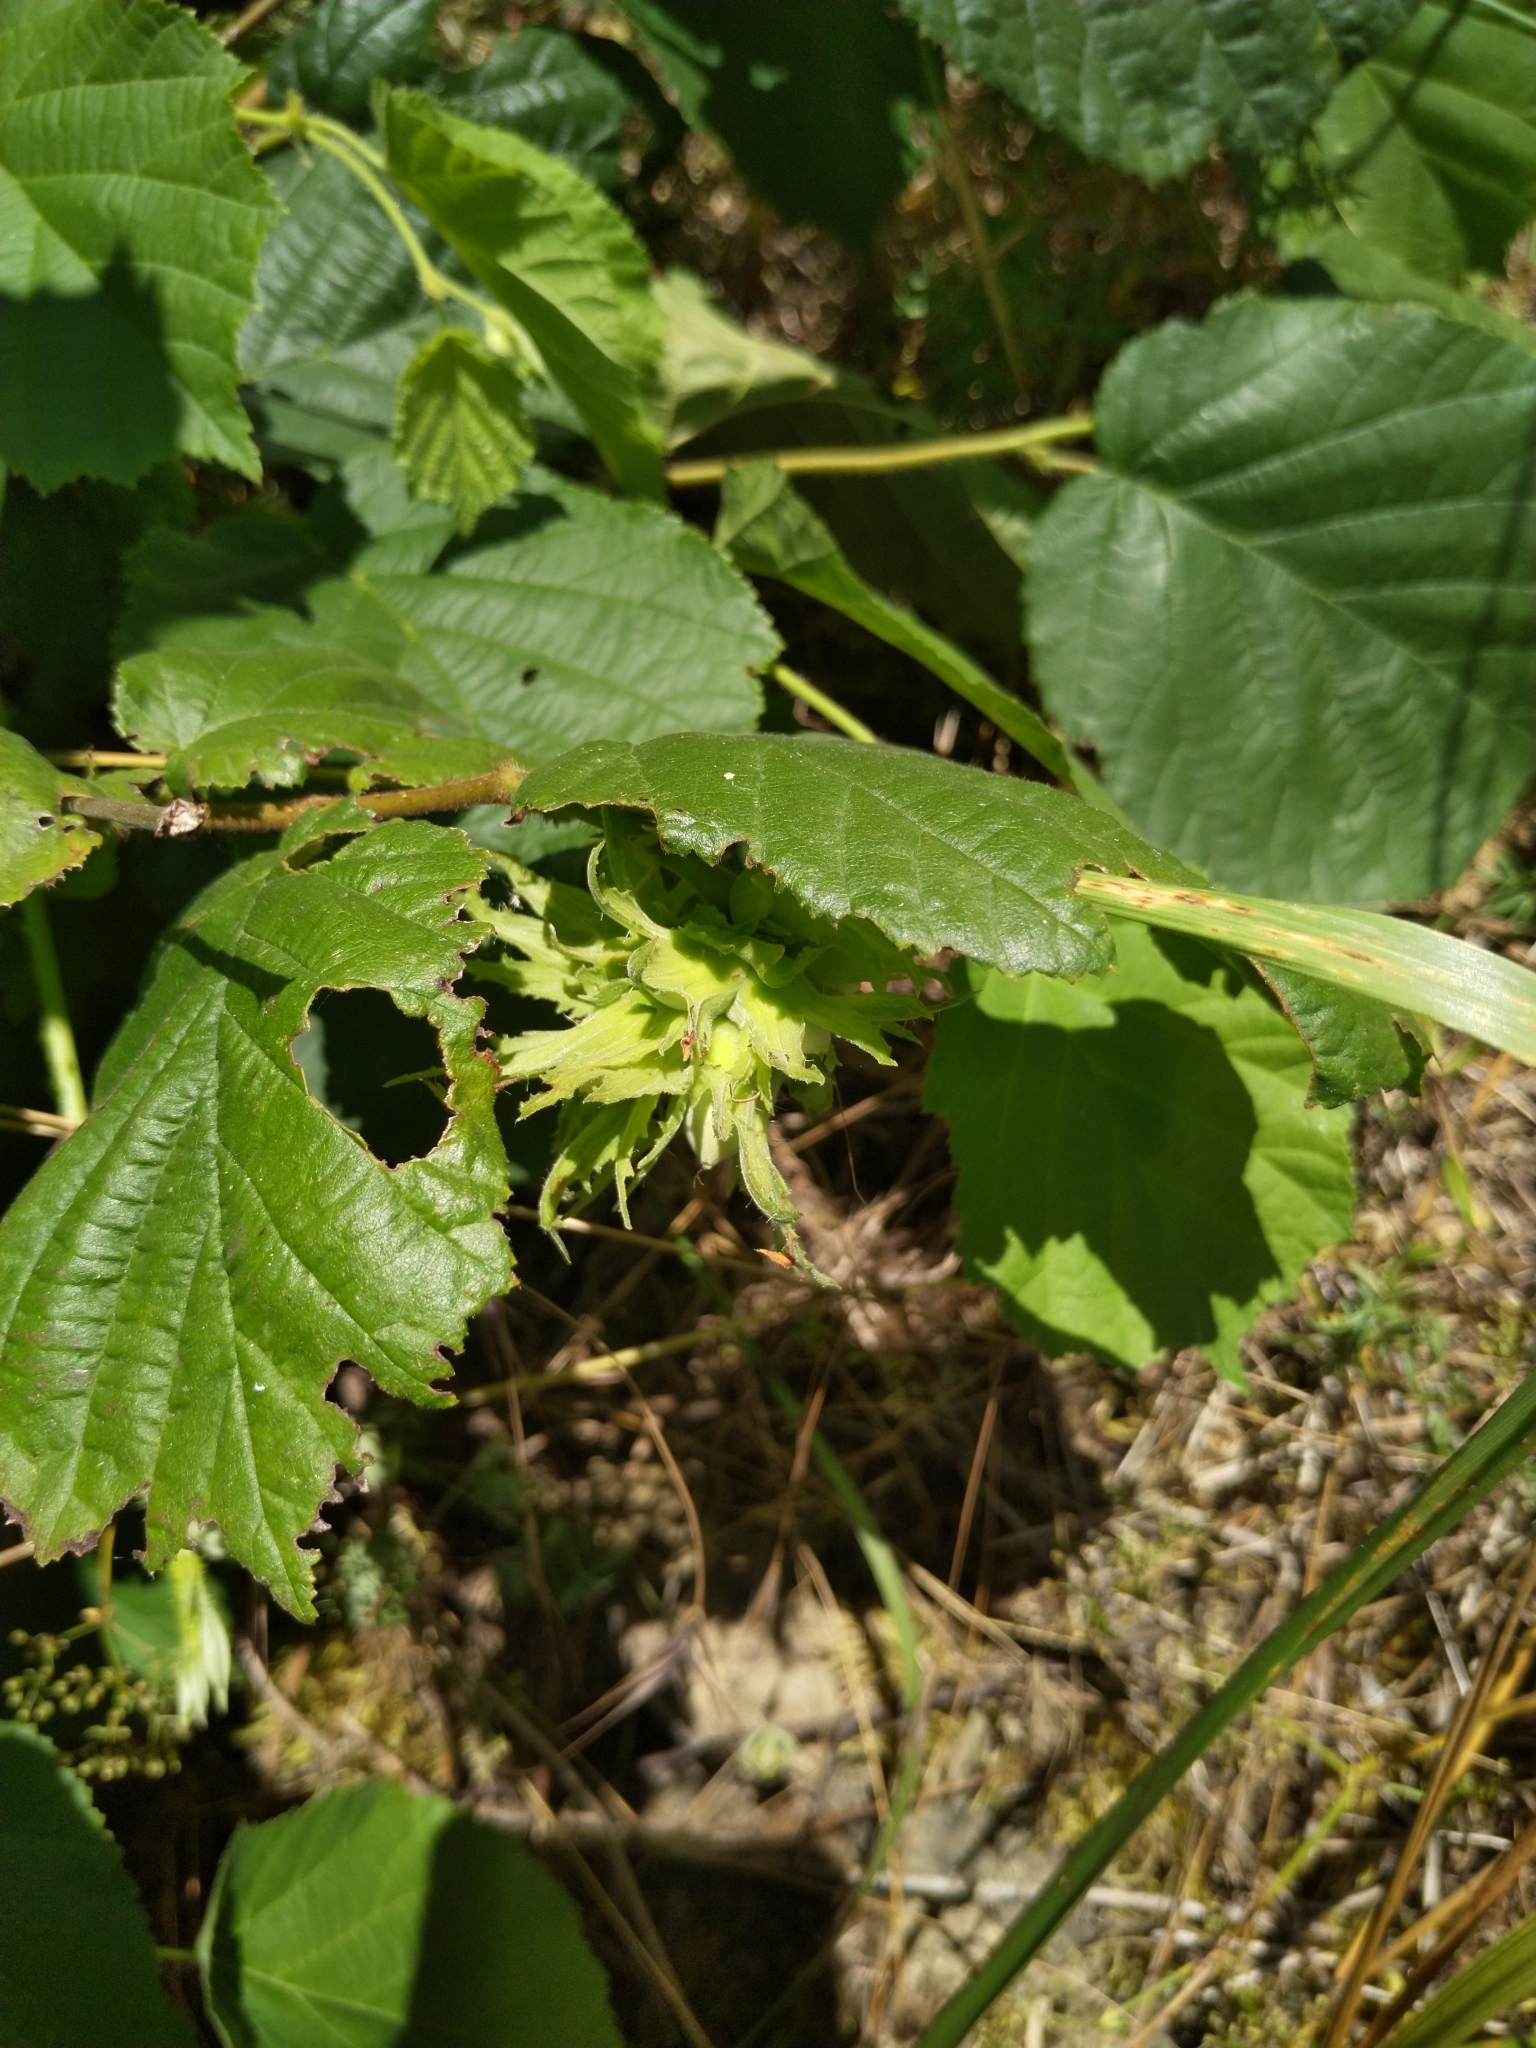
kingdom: Plantae
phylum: Tracheophyta
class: Magnoliopsida
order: Fagales
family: Betulaceae
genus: Corylus
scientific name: Corylus avellana
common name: European hazel
